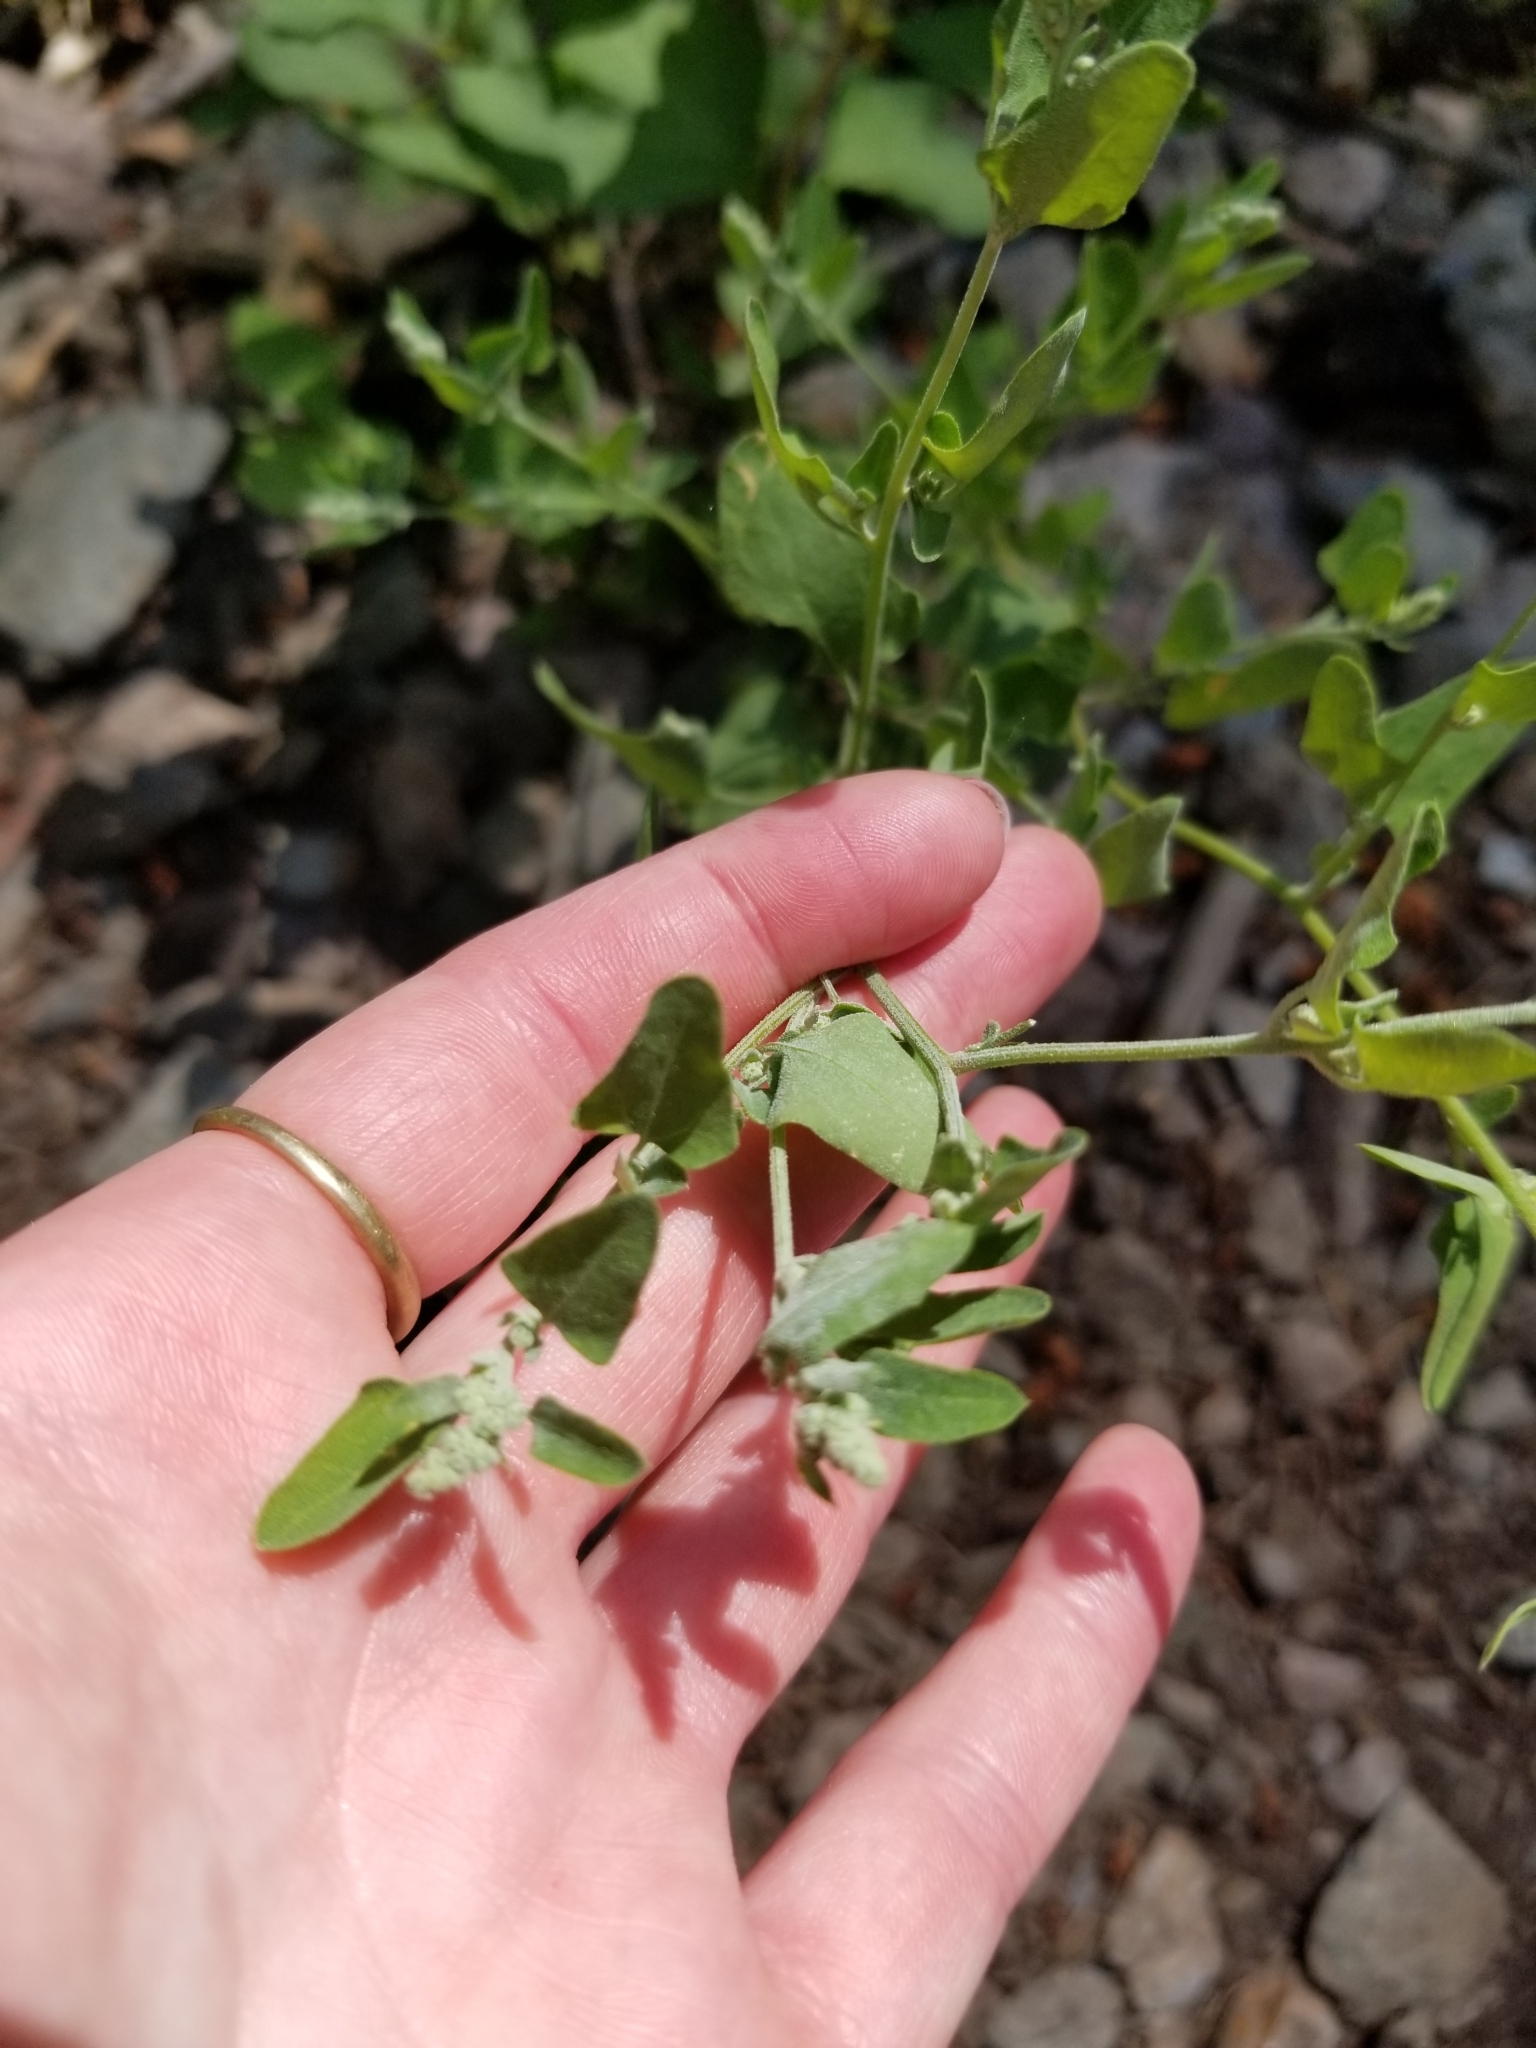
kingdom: Plantae
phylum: Tracheophyta
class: Magnoliopsida
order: Caryophyllales
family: Amaranthaceae
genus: Chenopodium
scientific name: Chenopodium album
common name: Fat-hen
